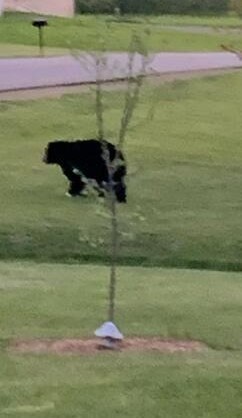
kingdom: Animalia
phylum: Chordata
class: Mammalia
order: Carnivora
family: Ursidae
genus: Ursus
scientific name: Ursus americanus
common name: American black bear
